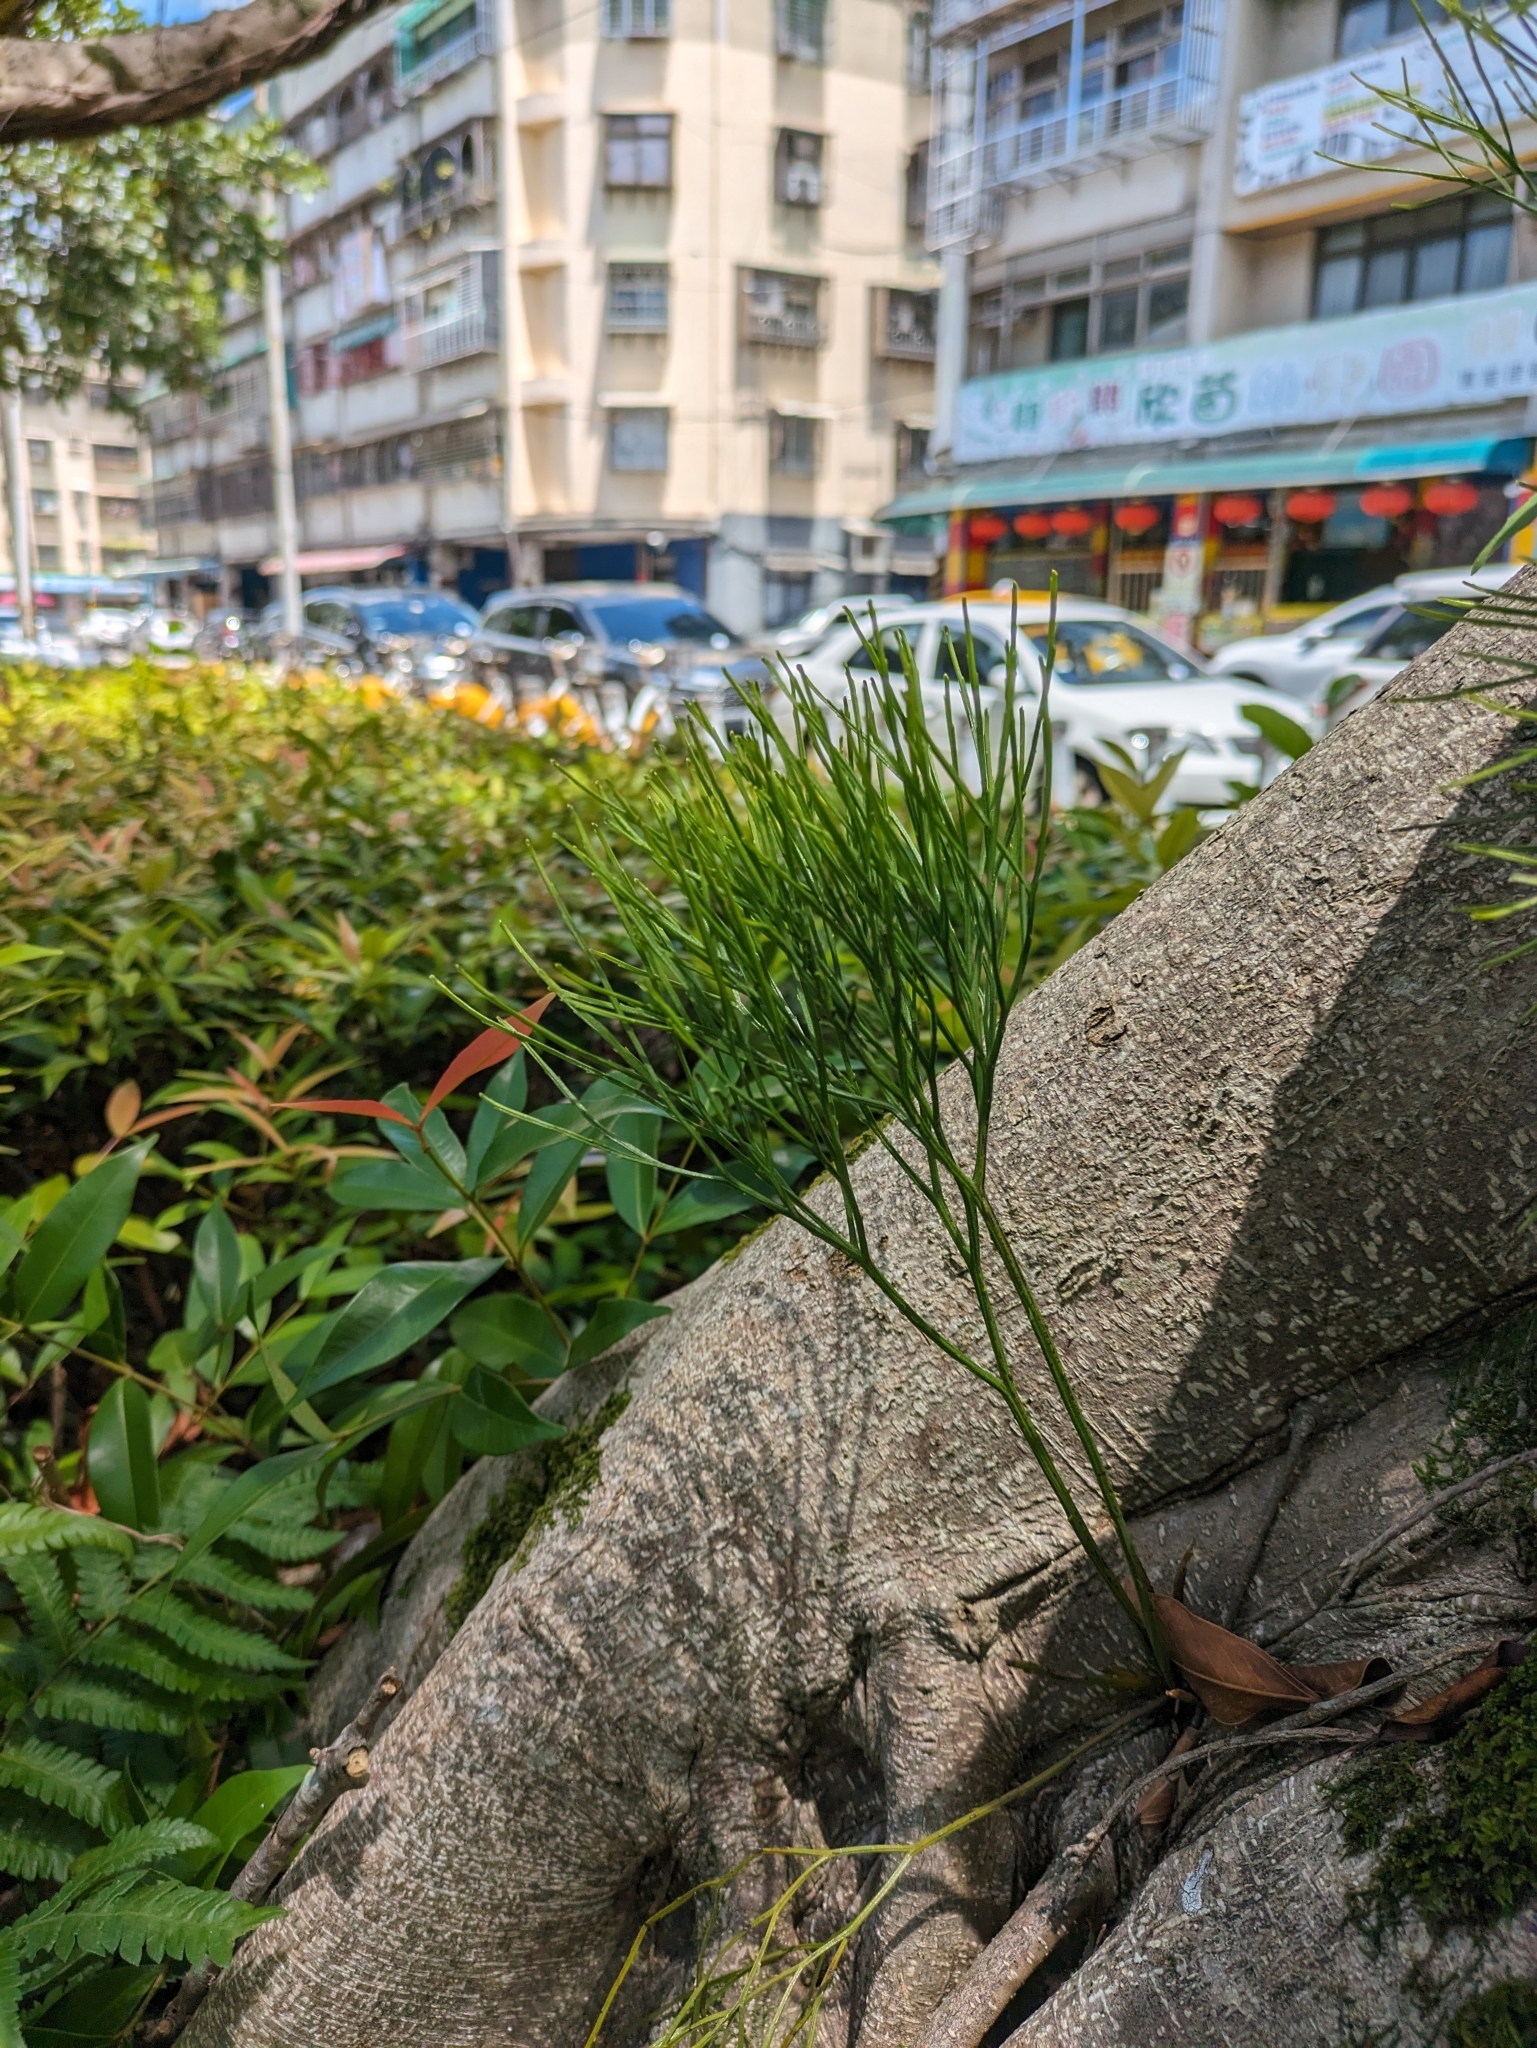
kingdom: Plantae
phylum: Tracheophyta
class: Polypodiopsida
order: Psilotales
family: Psilotaceae
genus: Psilotum
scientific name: Psilotum nudum
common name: Skeleton fork fern
